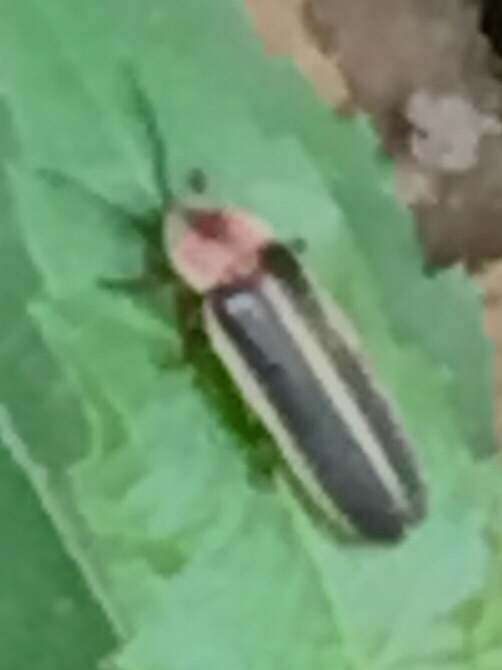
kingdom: Animalia
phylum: Arthropoda
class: Insecta
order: Coleoptera
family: Lampyridae
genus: Photinus
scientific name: Photinus pyralis
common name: Big dipper firefly
